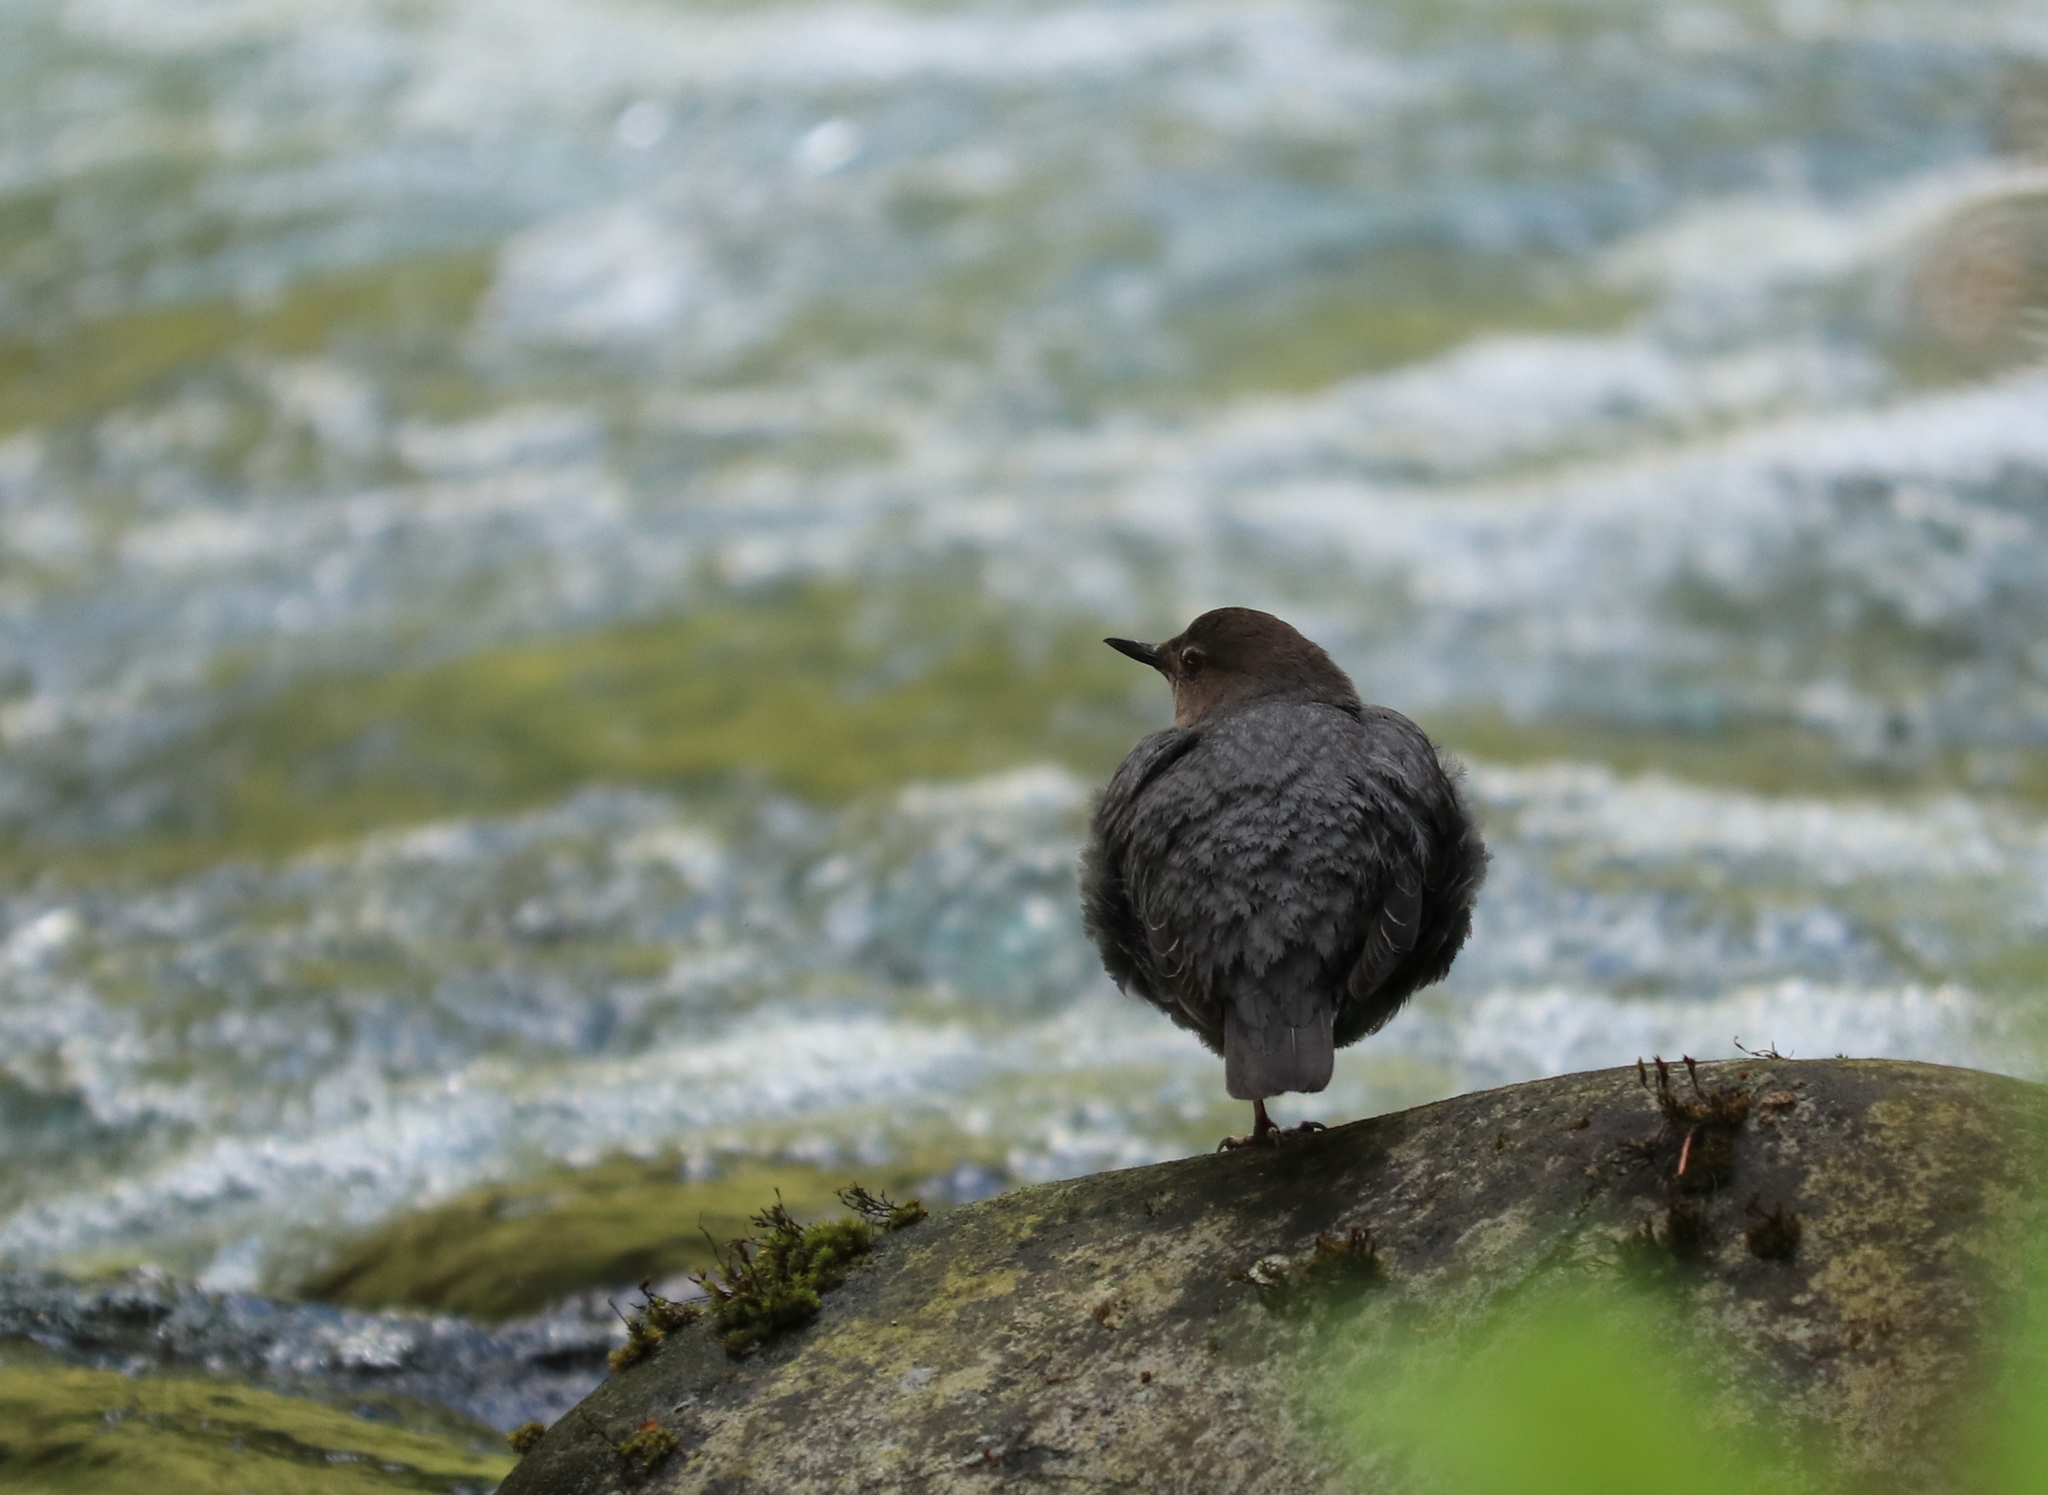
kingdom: Animalia
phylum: Chordata
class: Aves
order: Passeriformes
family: Cinclidae
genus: Cinclus
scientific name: Cinclus mexicanus
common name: American dipper
